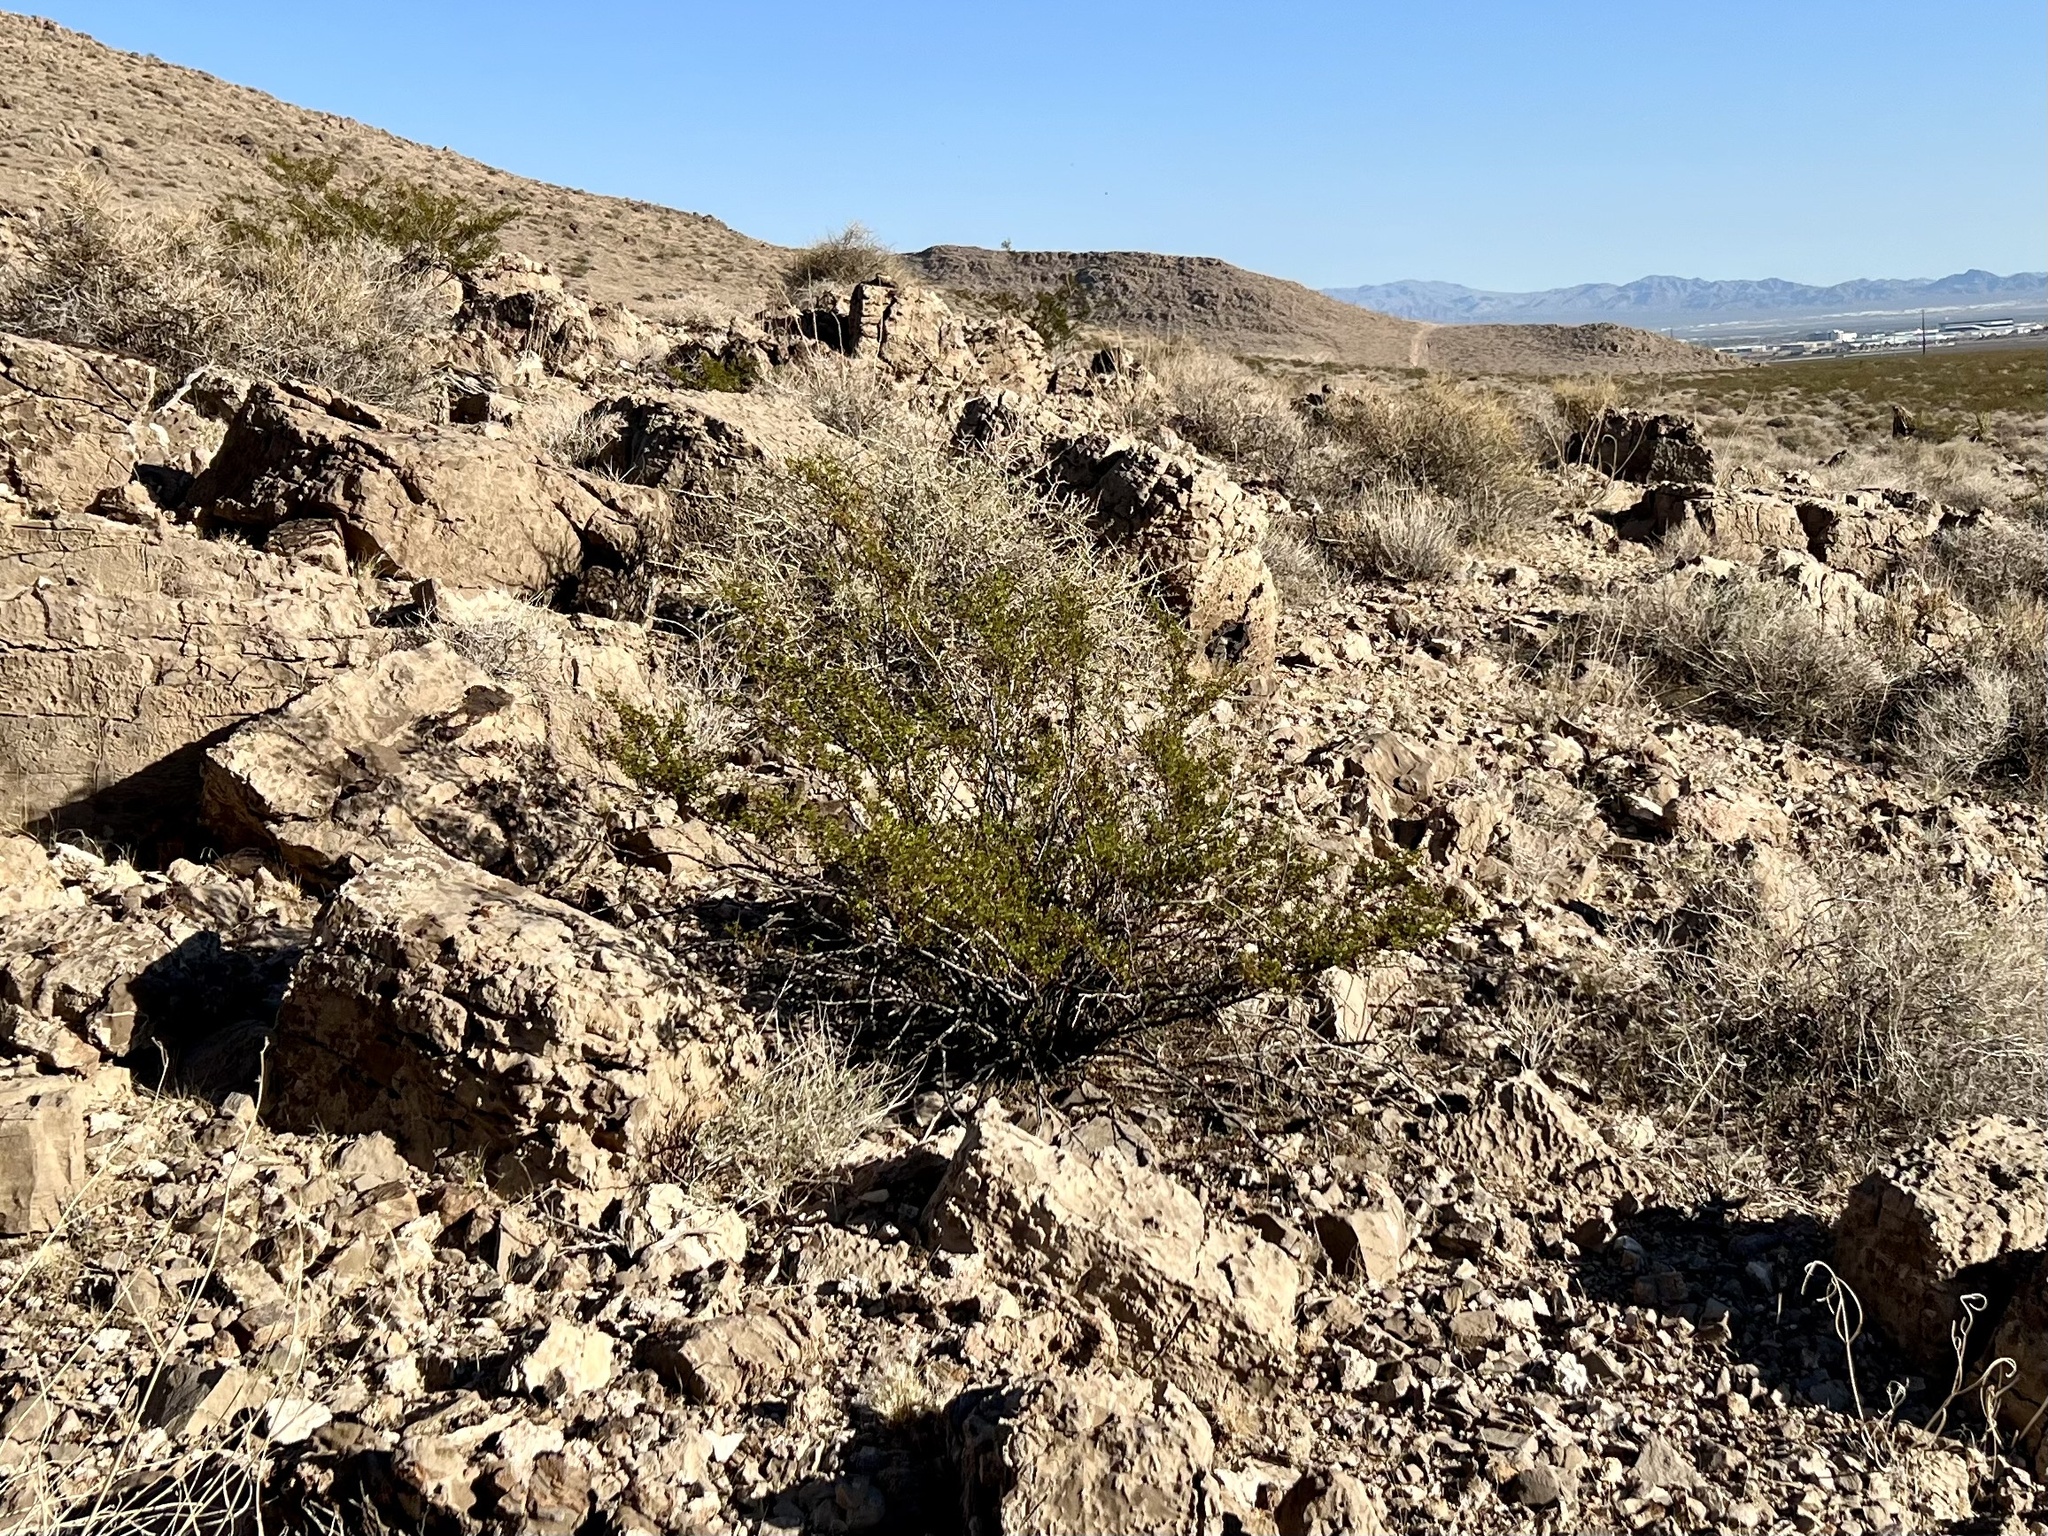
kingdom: Plantae
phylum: Tracheophyta
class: Magnoliopsida
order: Zygophyllales
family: Zygophyllaceae
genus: Larrea
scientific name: Larrea tridentata
